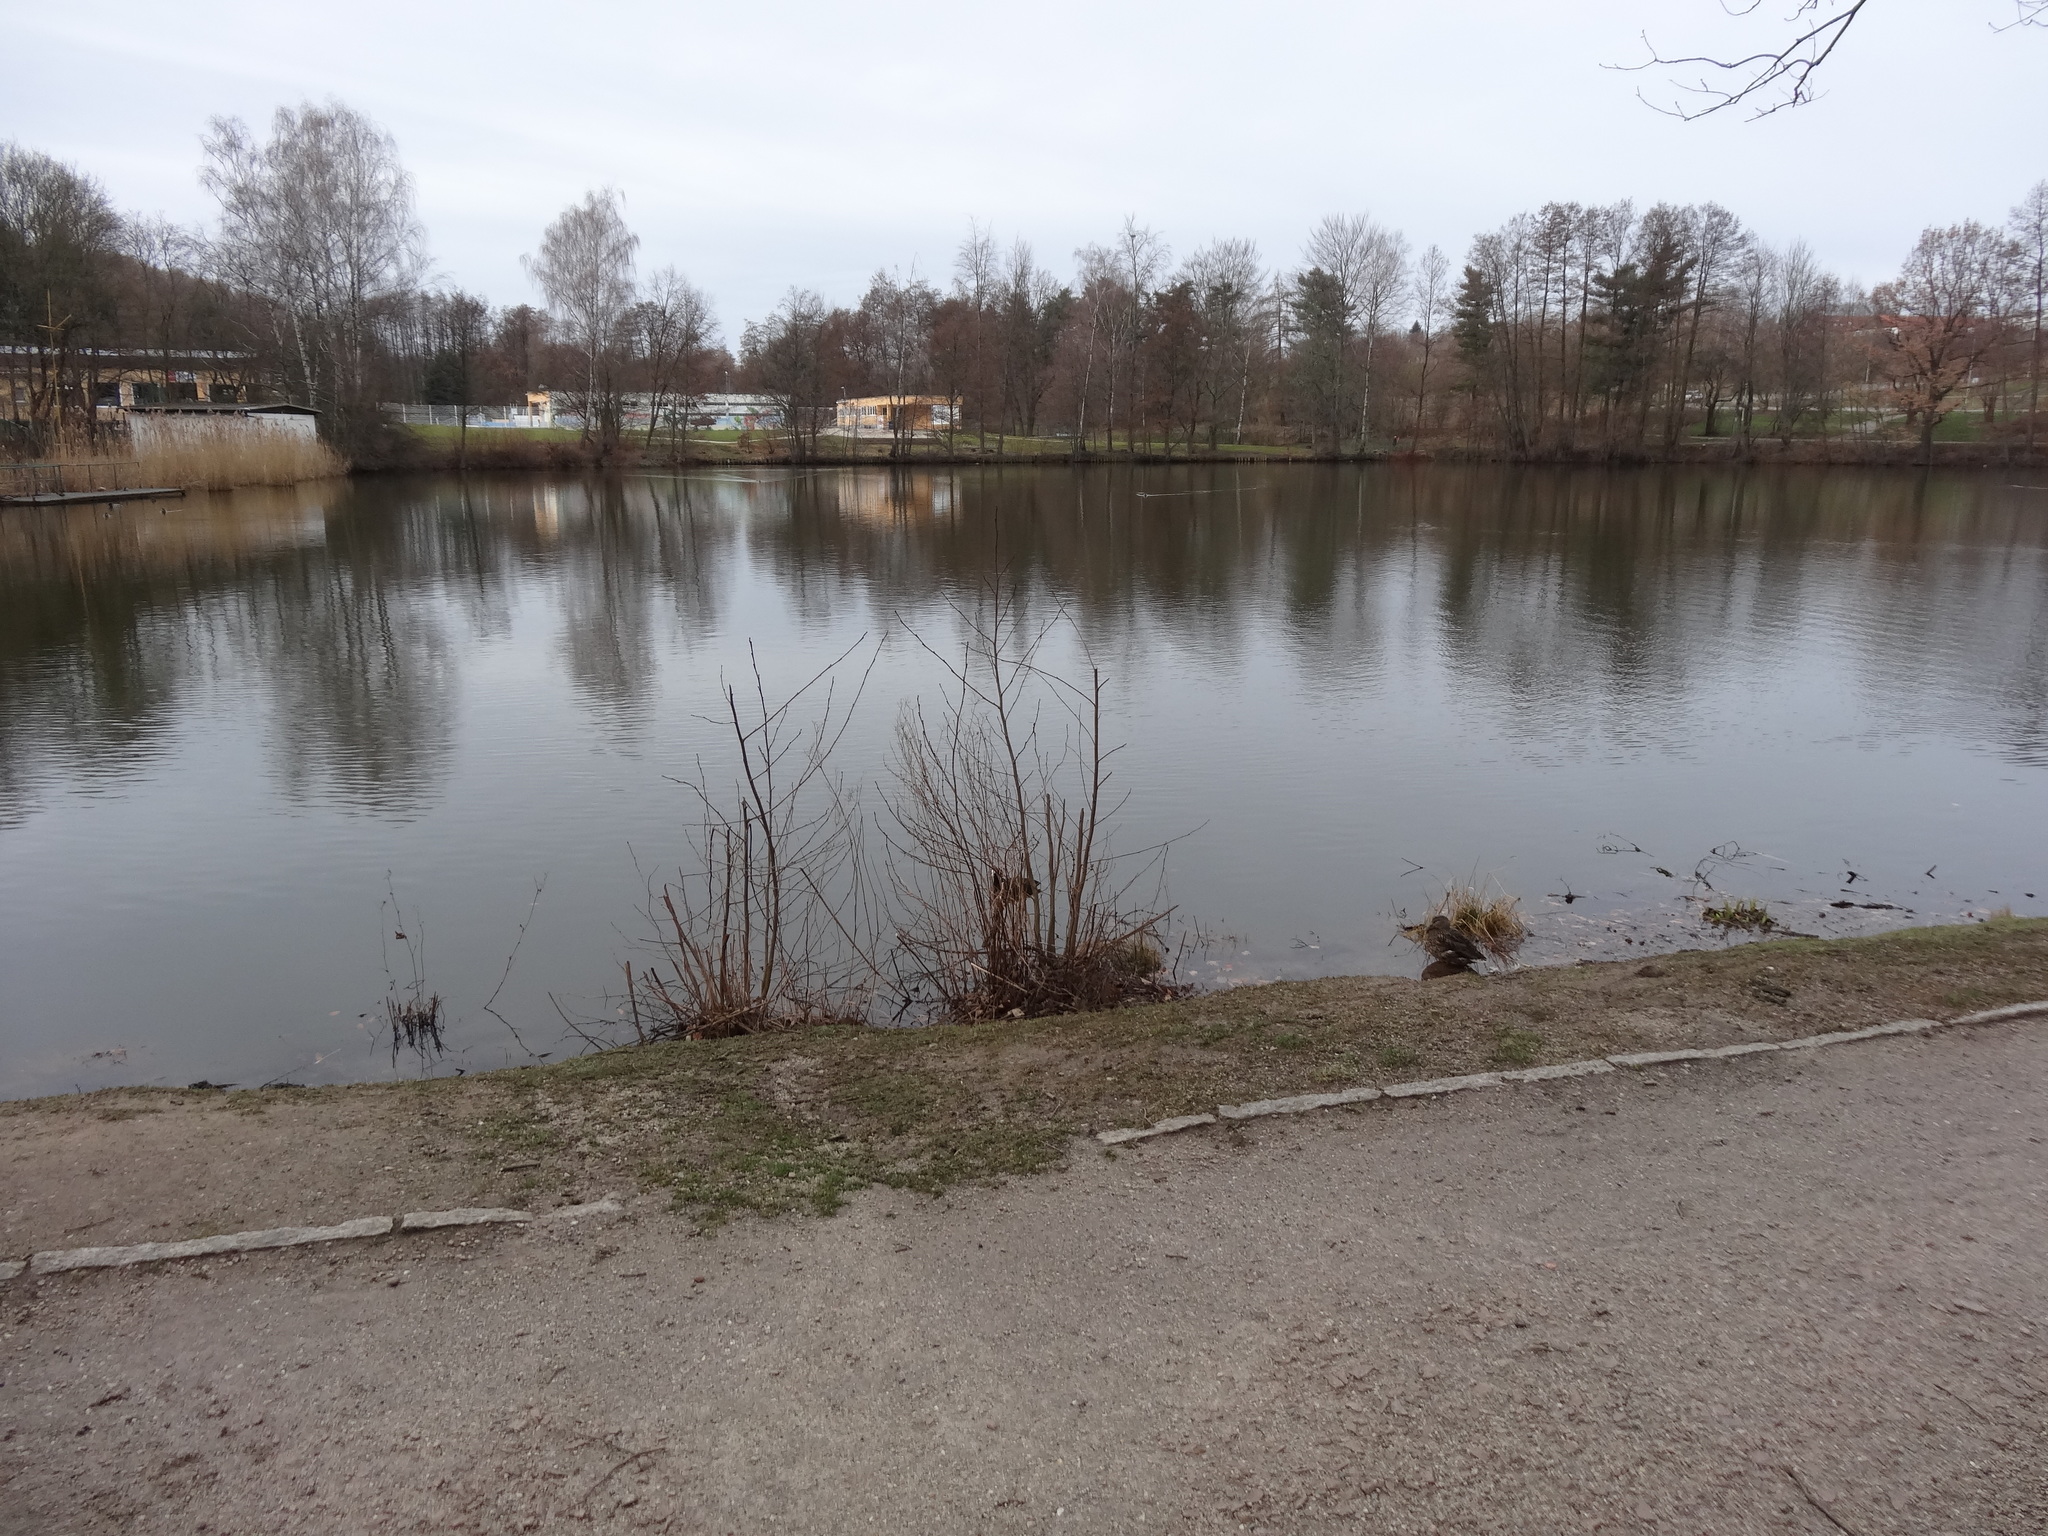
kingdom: Animalia
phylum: Chordata
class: Aves
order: Gruiformes
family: Rallidae
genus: Fulica
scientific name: Fulica atra
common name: Eurasian coot
